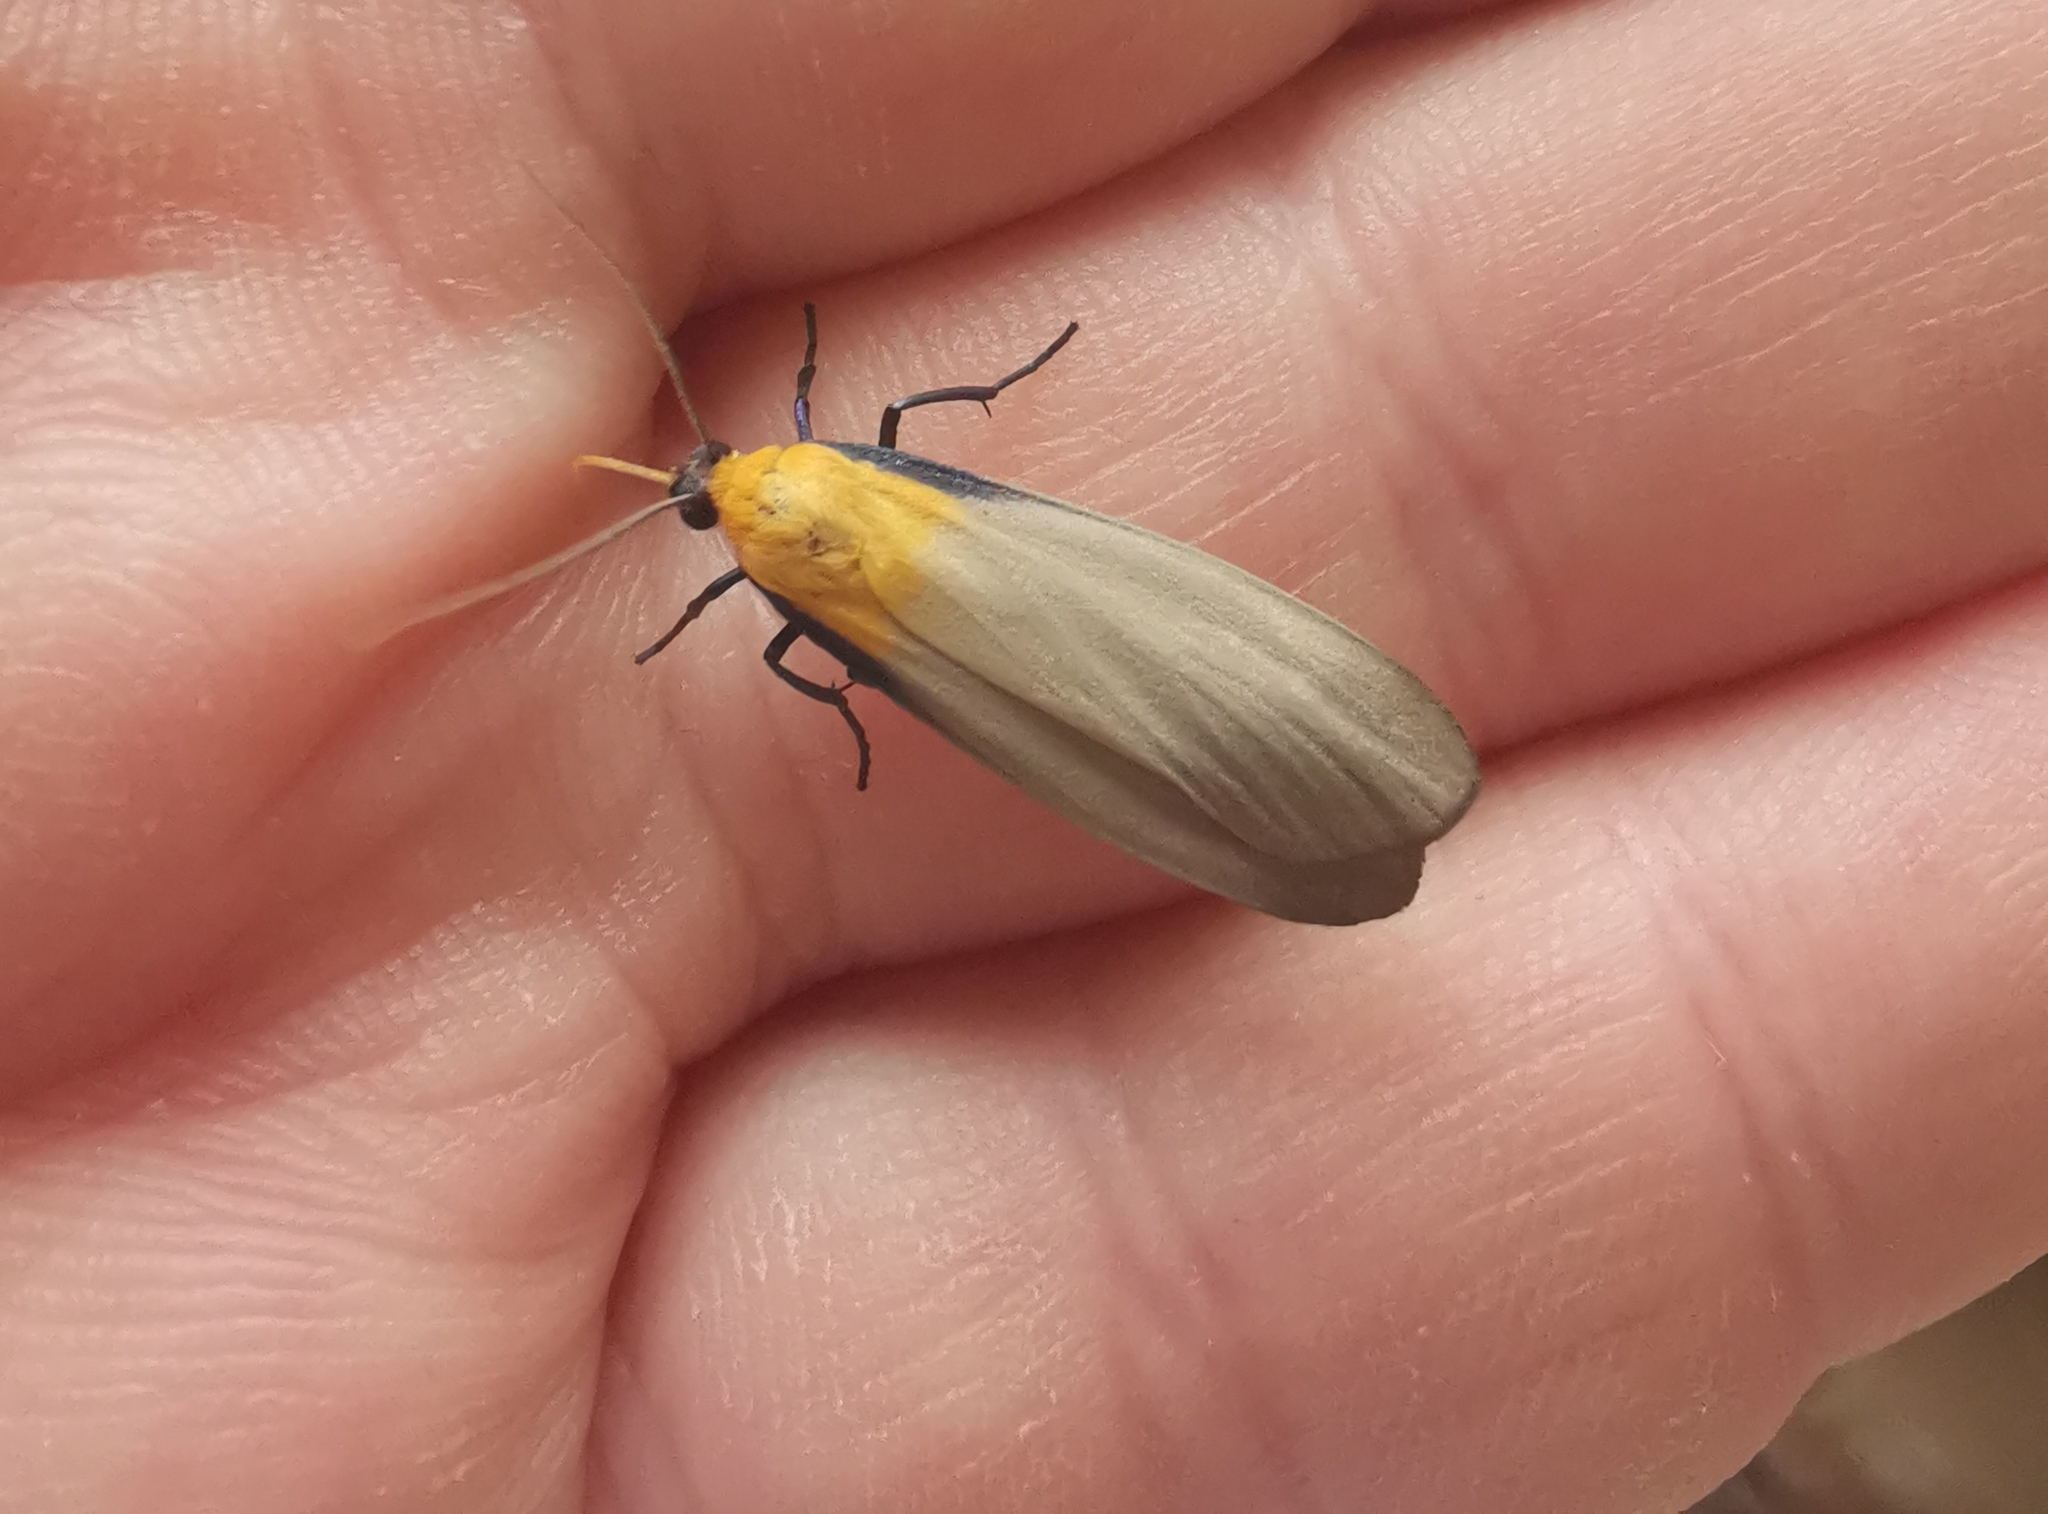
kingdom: Animalia
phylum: Arthropoda
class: Insecta
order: Lepidoptera
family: Erebidae
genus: Lithosia
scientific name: Lithosia quadra
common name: Four-spotted footman
